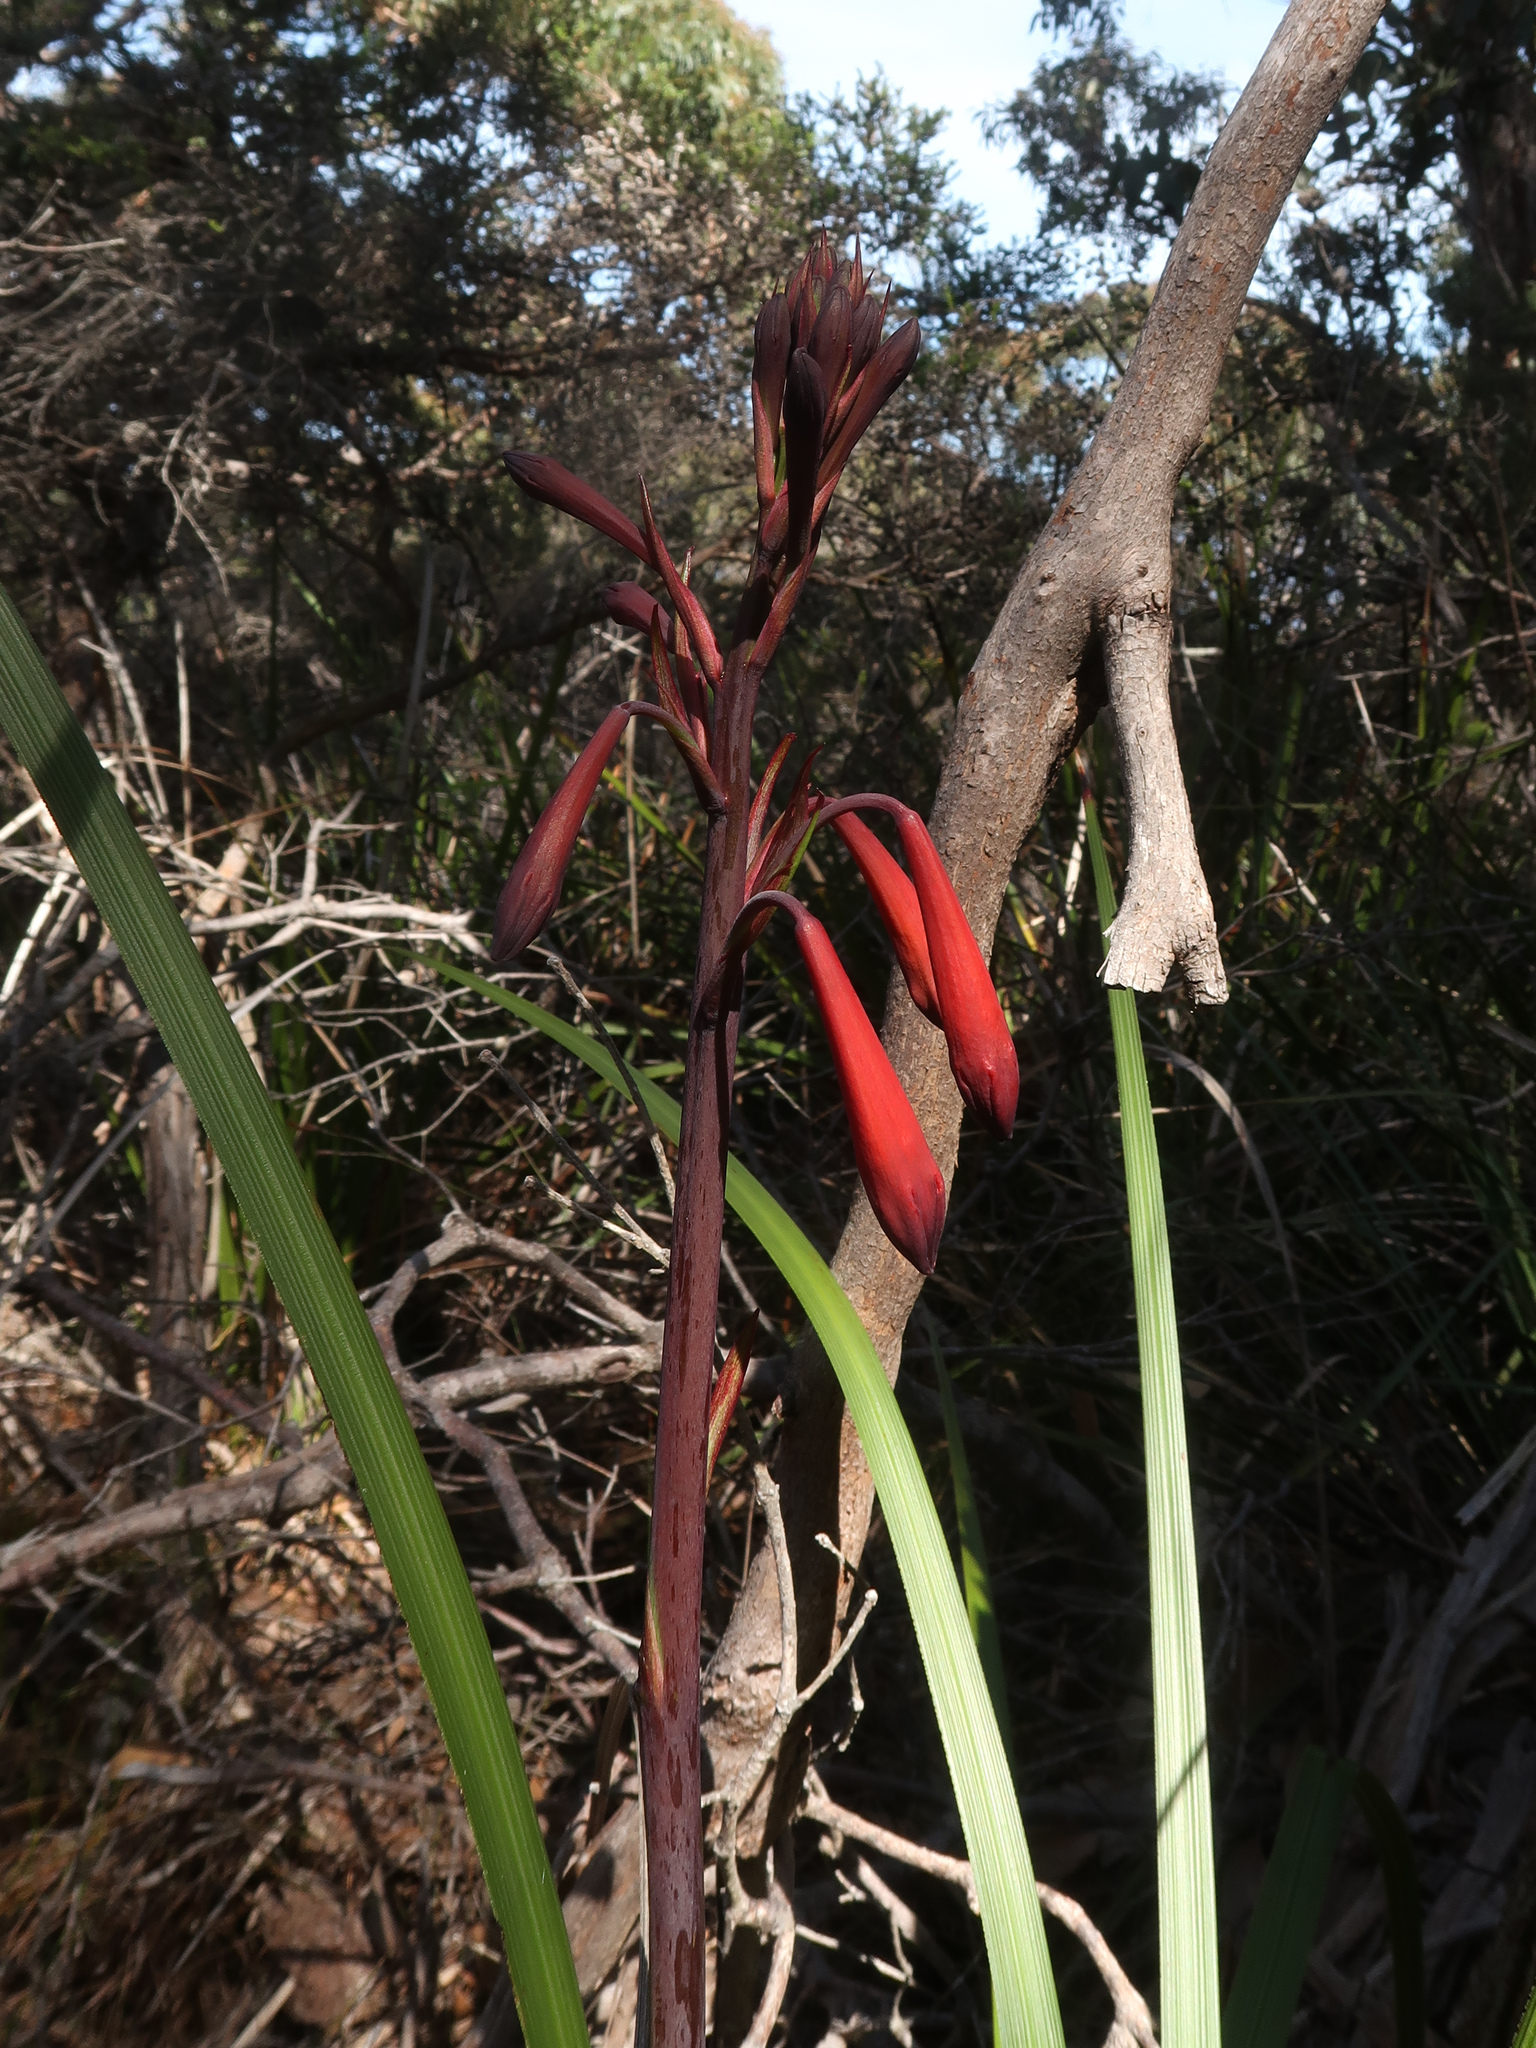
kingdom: Plantae
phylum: Tracheophyta
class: Liliopsida
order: Asparagales
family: Blandfordiaceae
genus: Blandfordia
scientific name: Blandfordia punicea
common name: Tasmanian christmas-bell
